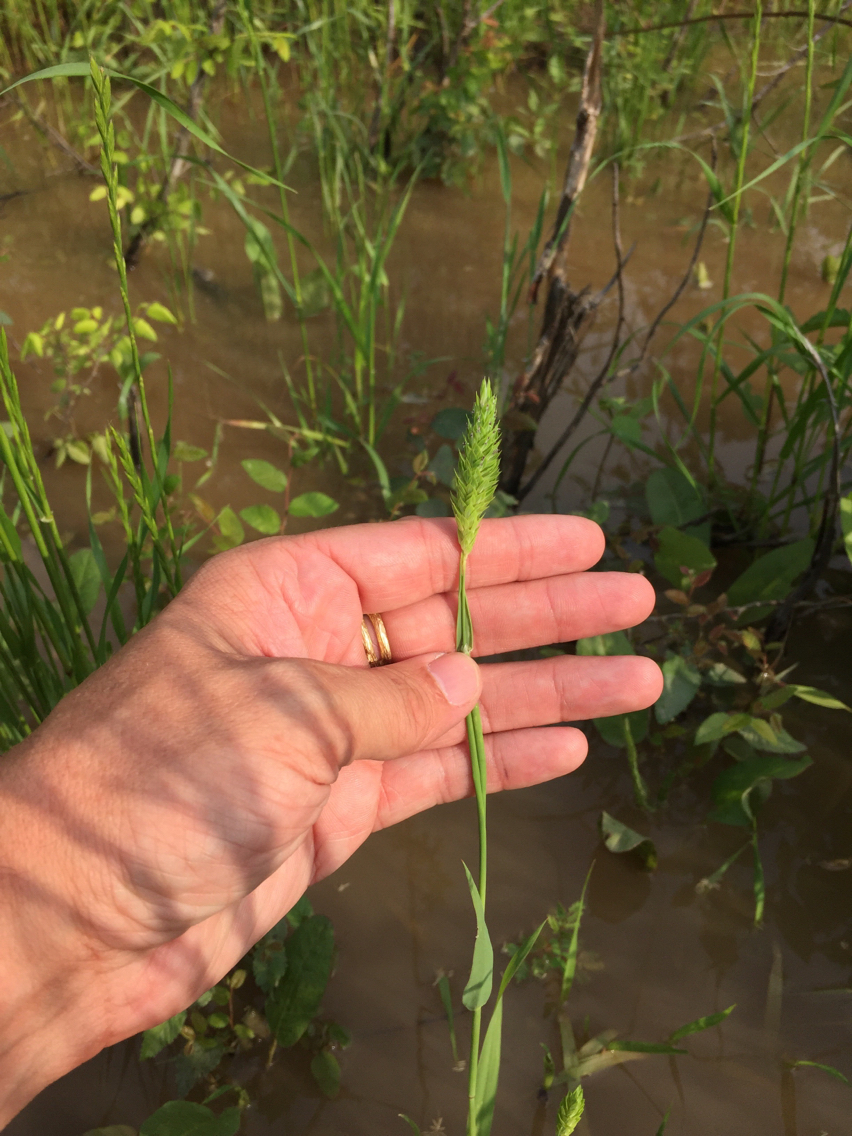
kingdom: Plantae
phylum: Tracheophyta
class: Liliopsida
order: Poales
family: Poaceae
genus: Phalaris
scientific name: Phalaris caroliniana
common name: May grass
